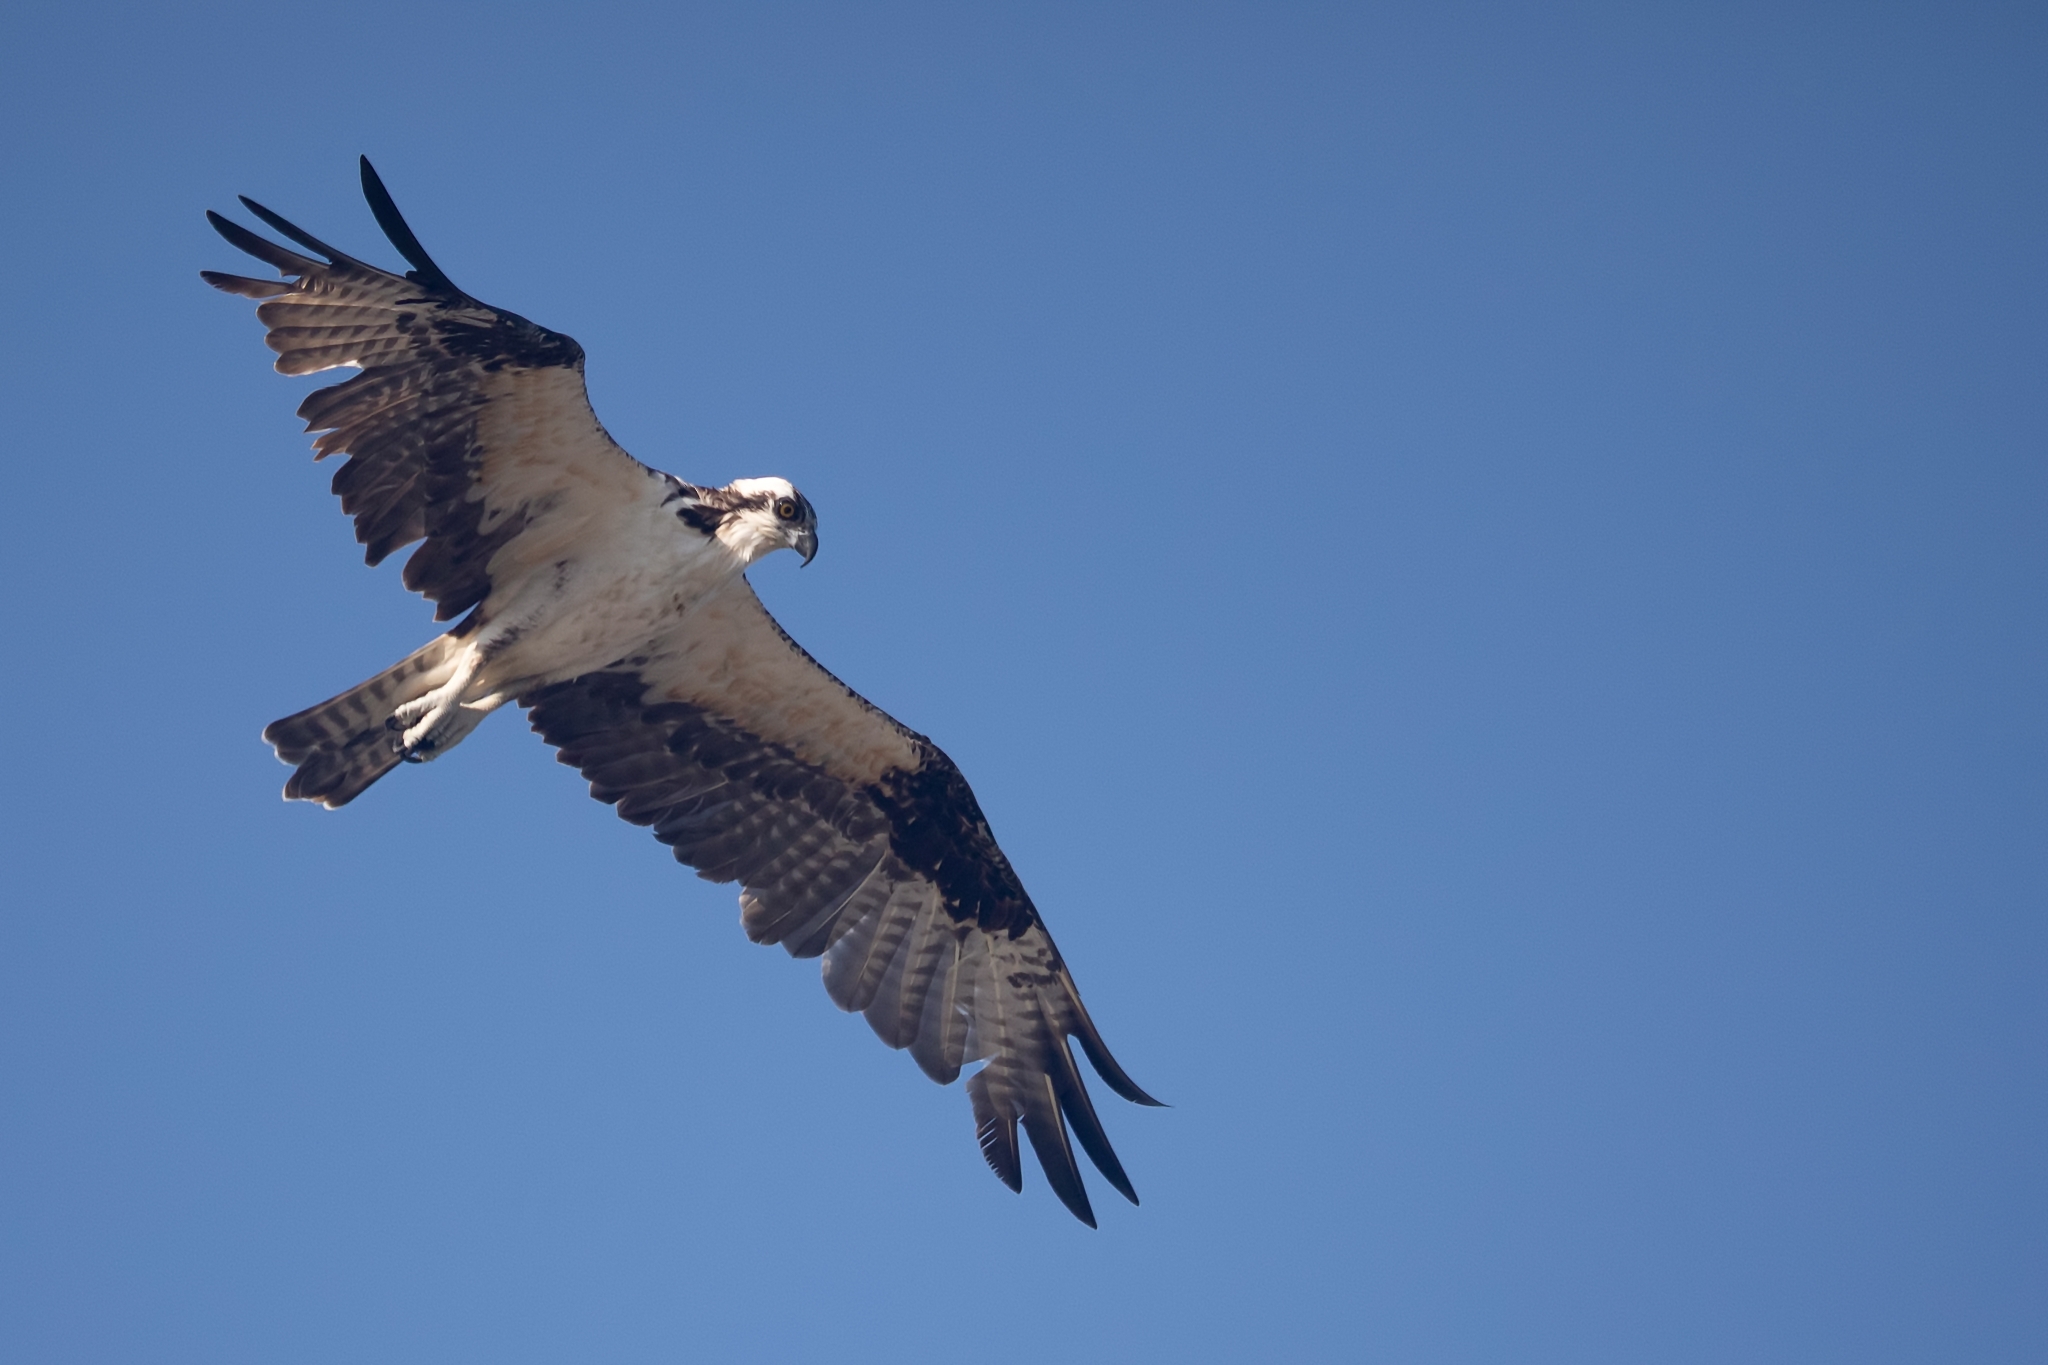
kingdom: Animalia
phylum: Chordata
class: Aves
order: Accipitriformes
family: Pandionidae
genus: Pandion
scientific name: Pandion haliaetus
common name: Osprey
